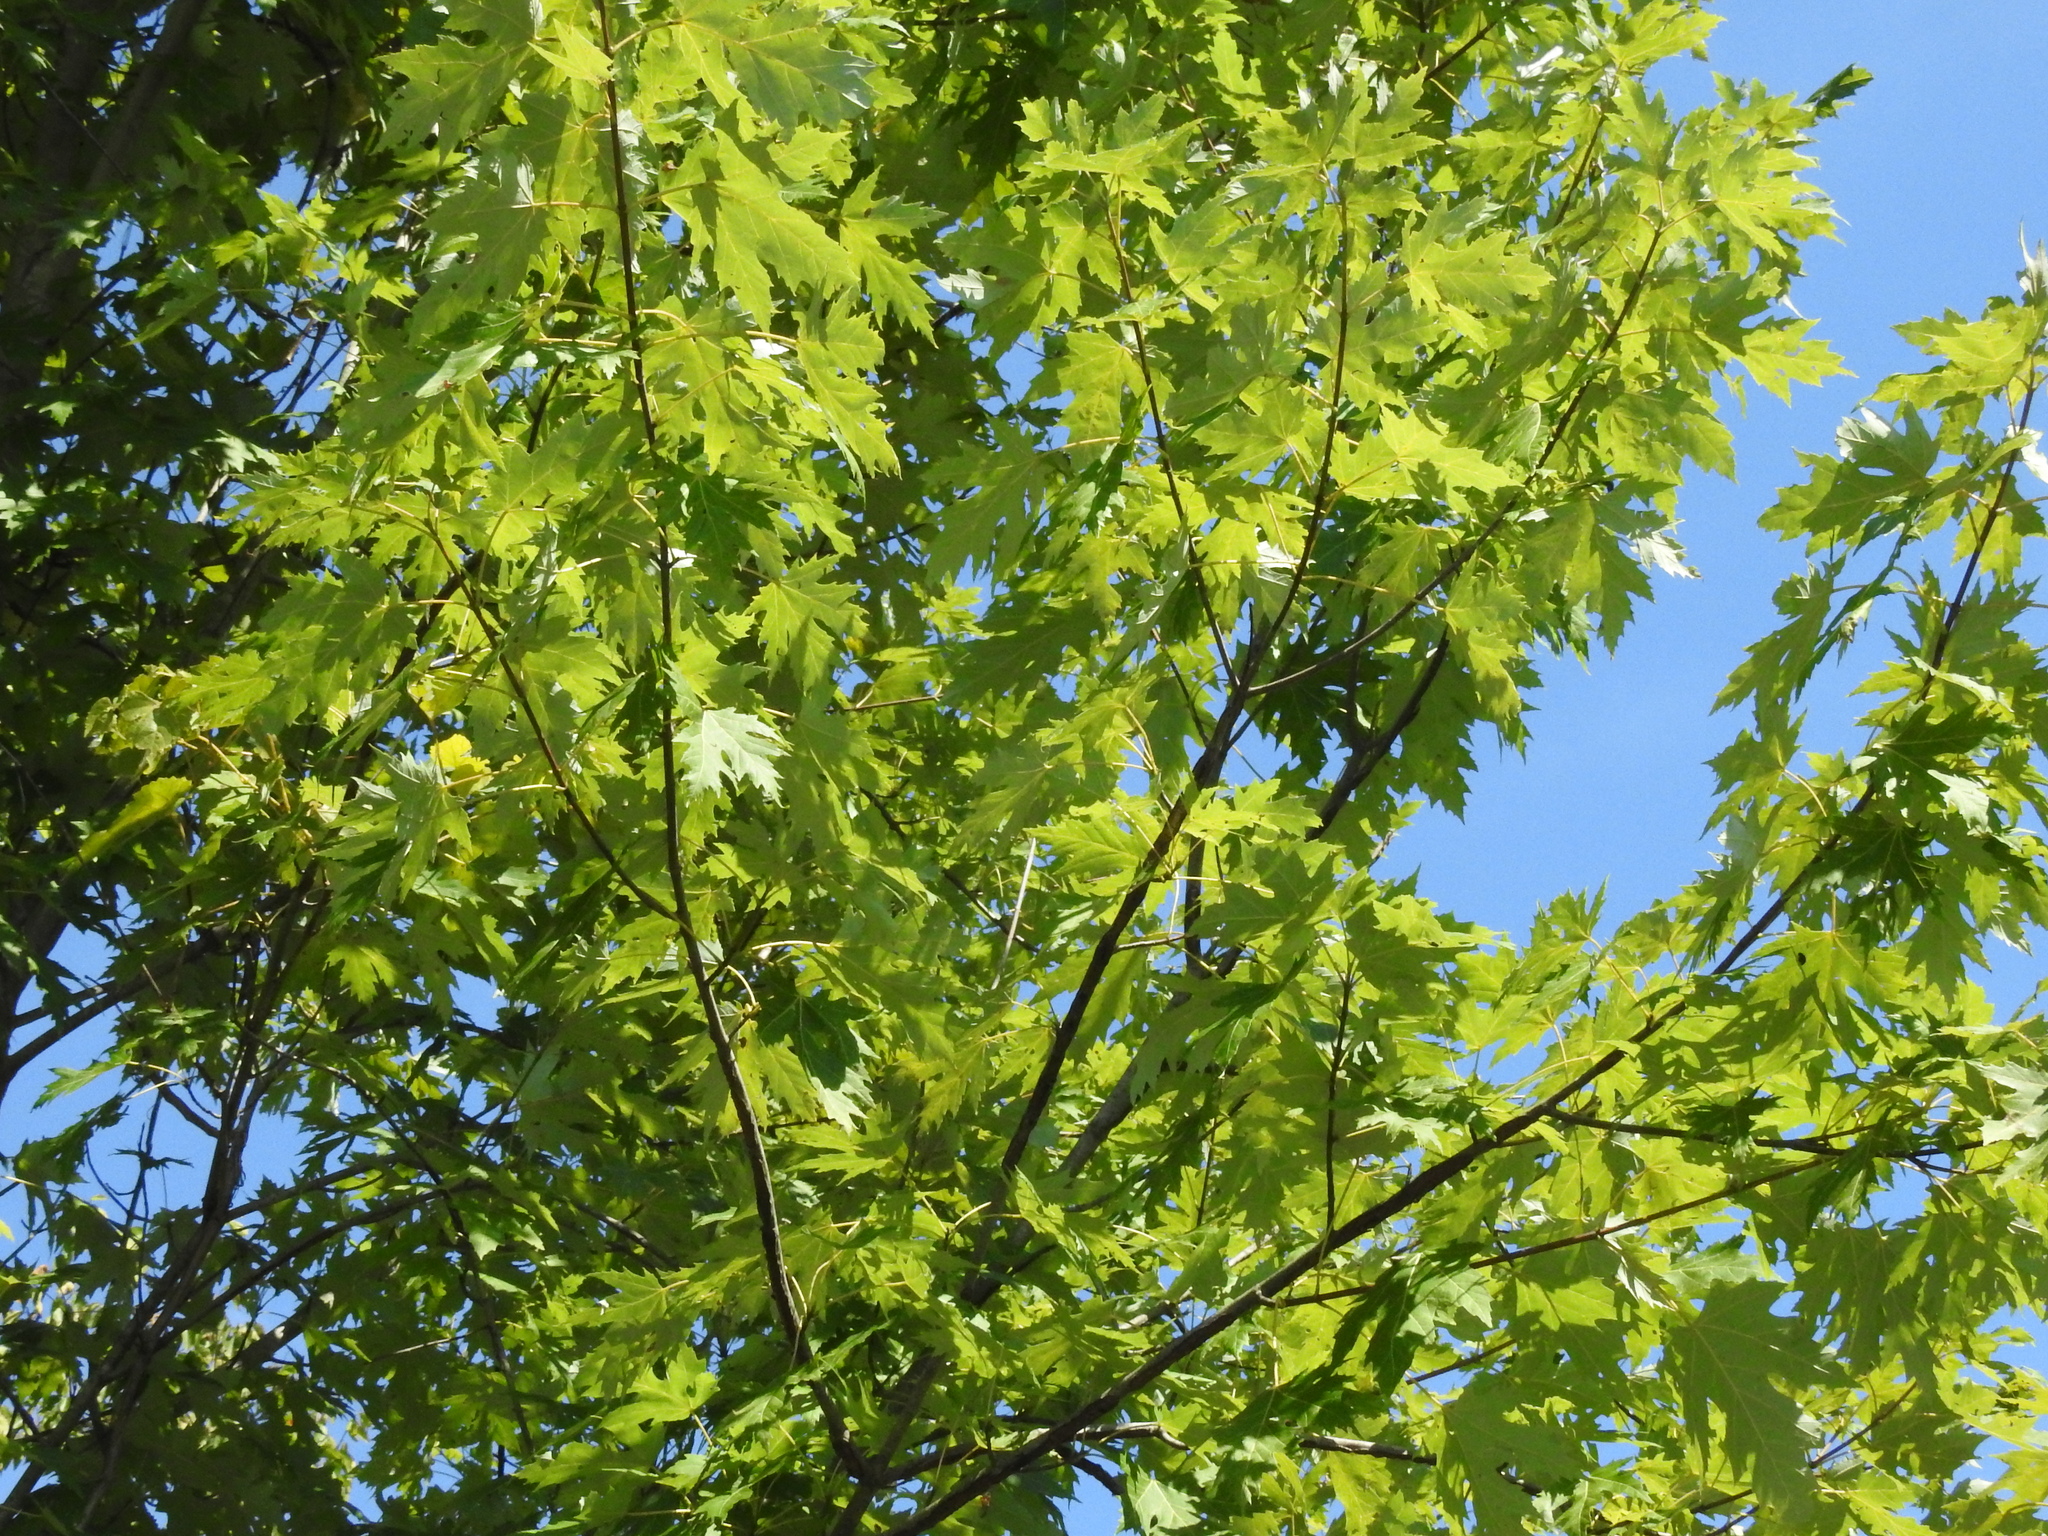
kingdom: Plantae
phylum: Tracheophyta
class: Magnoliopsida
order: Sapindales
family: Sapindaceae
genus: Acer
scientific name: Acer saccharinum
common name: Silver maple
